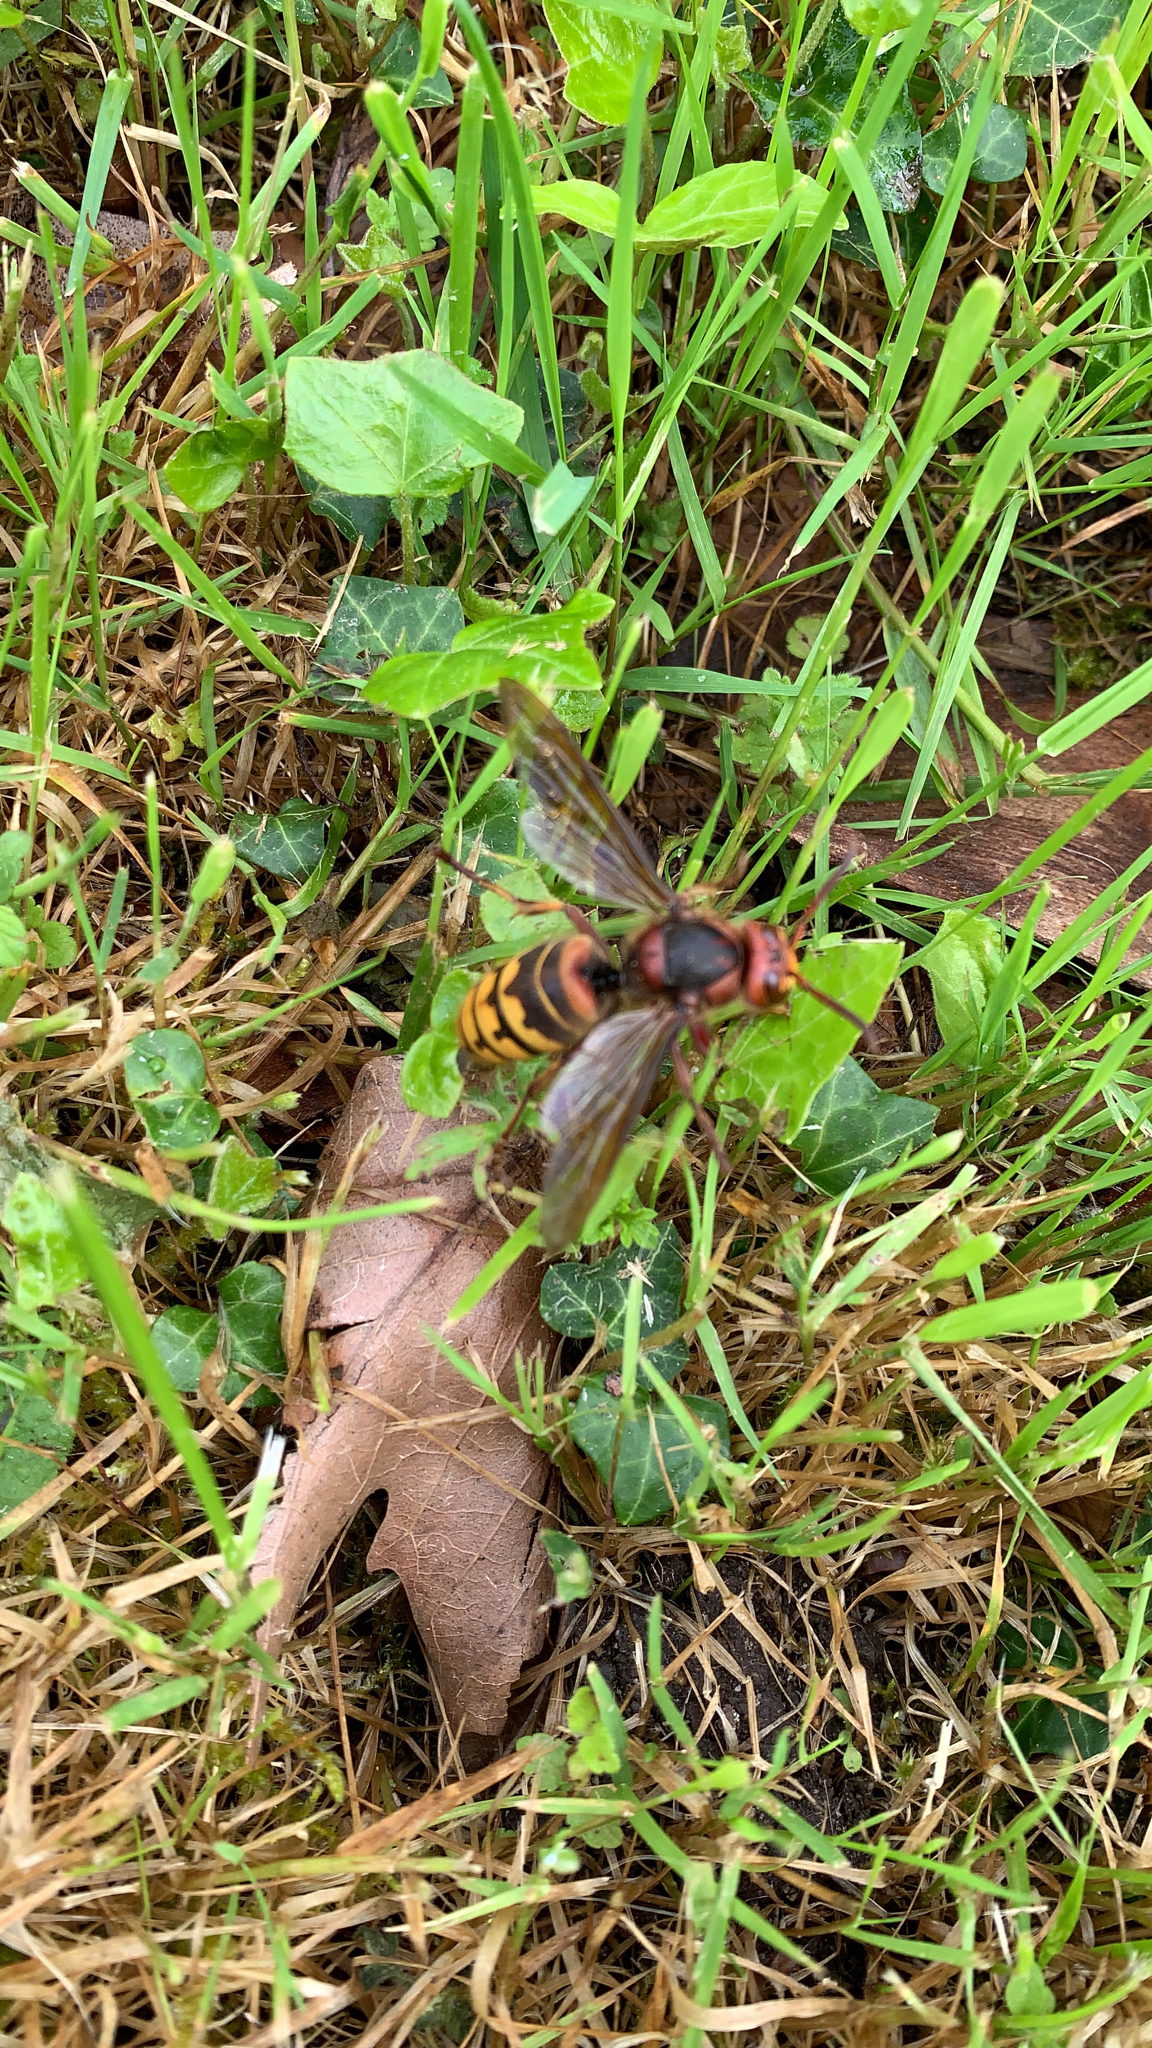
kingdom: Animalia
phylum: Arthropoda
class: Insecta
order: Hymenoptera
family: Vespidae
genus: Vespa
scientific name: Vespa crabro
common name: Hornet
